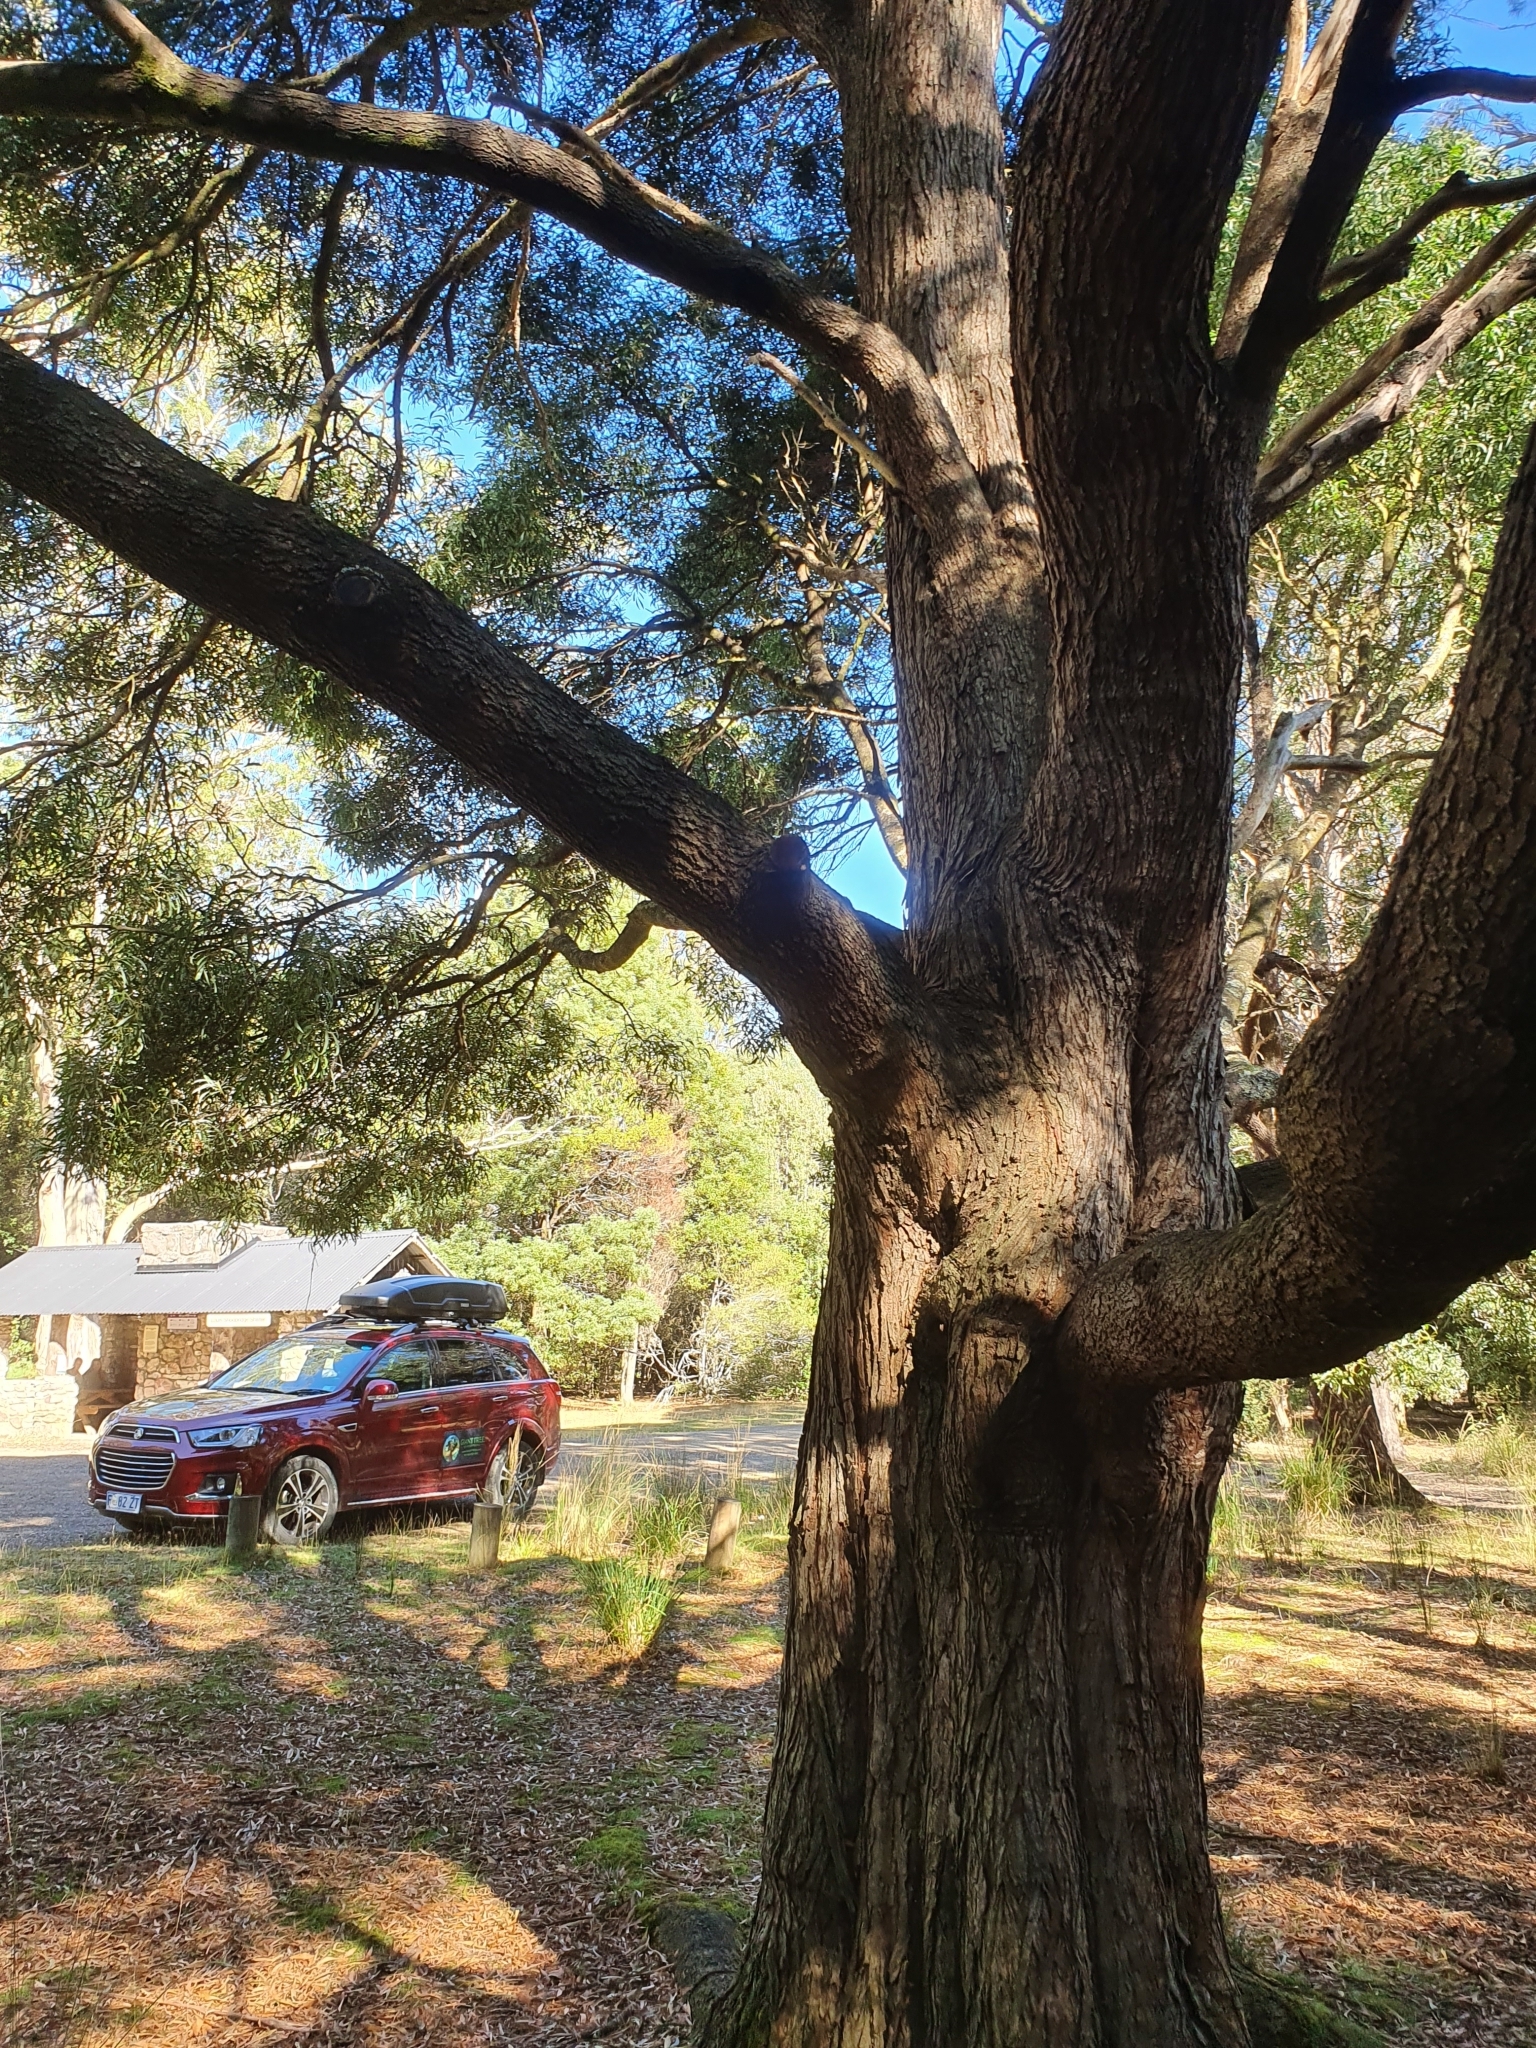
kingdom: Plantae
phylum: Tracheophyta
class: Magnoliopsida
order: Fabales
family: Fabaceae
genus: Acacia
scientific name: Acacia melanoxylon
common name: Blackwood
